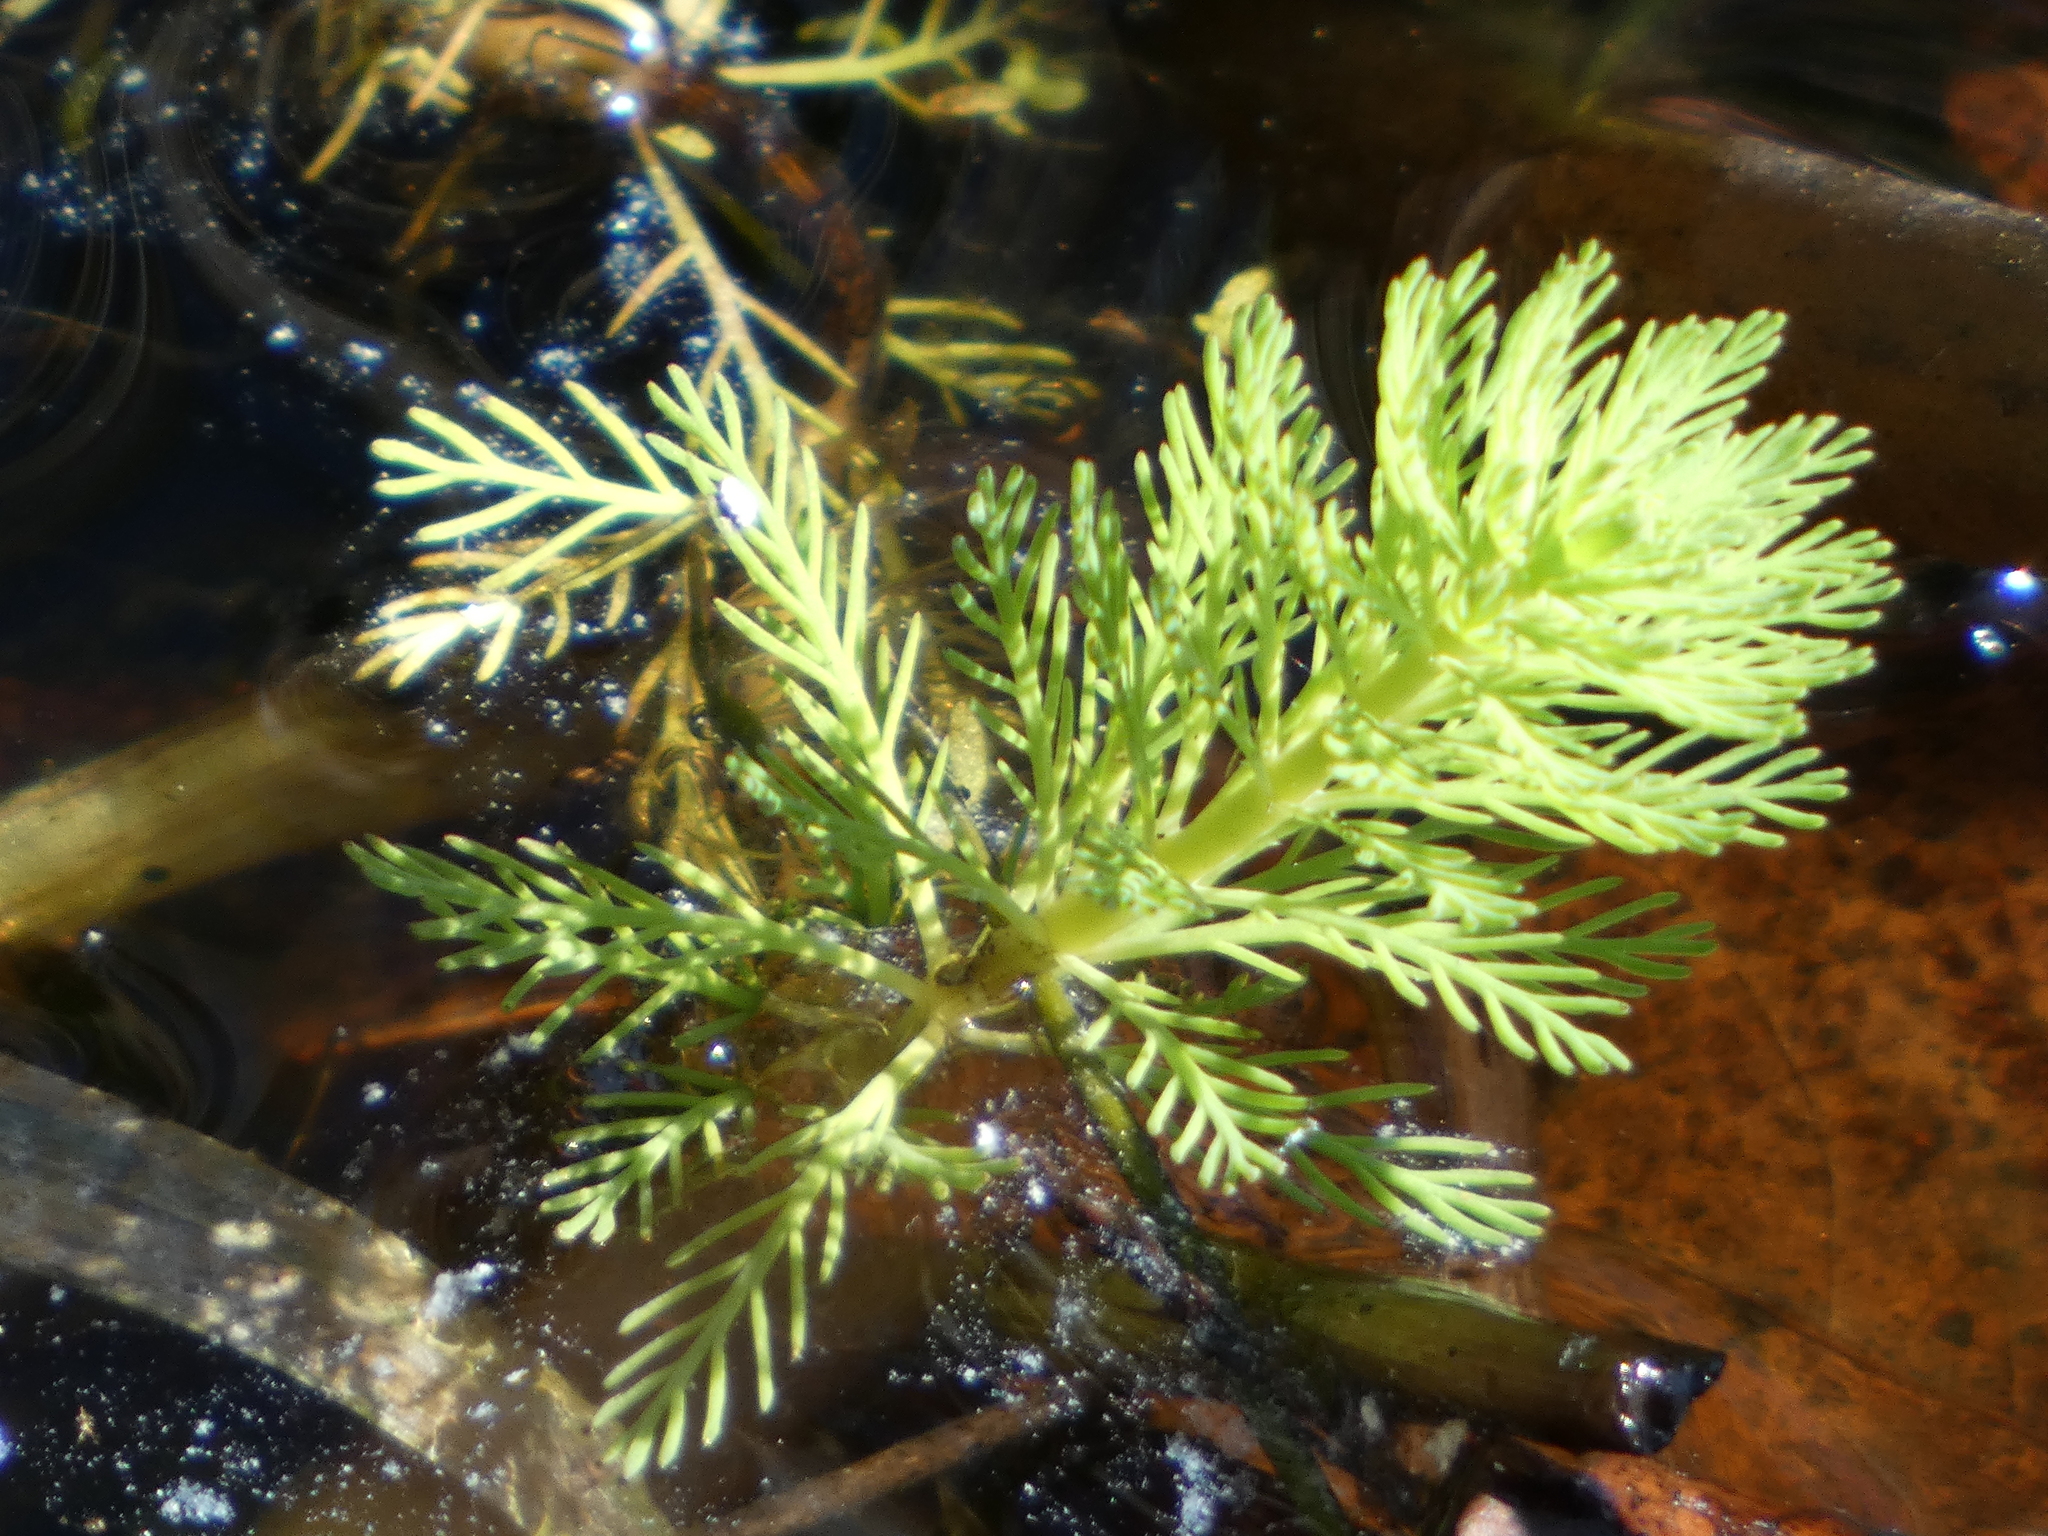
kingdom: Plantae
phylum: Tracheophyta
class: Magnoliopsida
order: Saxifragales
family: Haloragaceae
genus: Myriophyllum
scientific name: Myriophyllum aquaticum
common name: Parrot's feather
